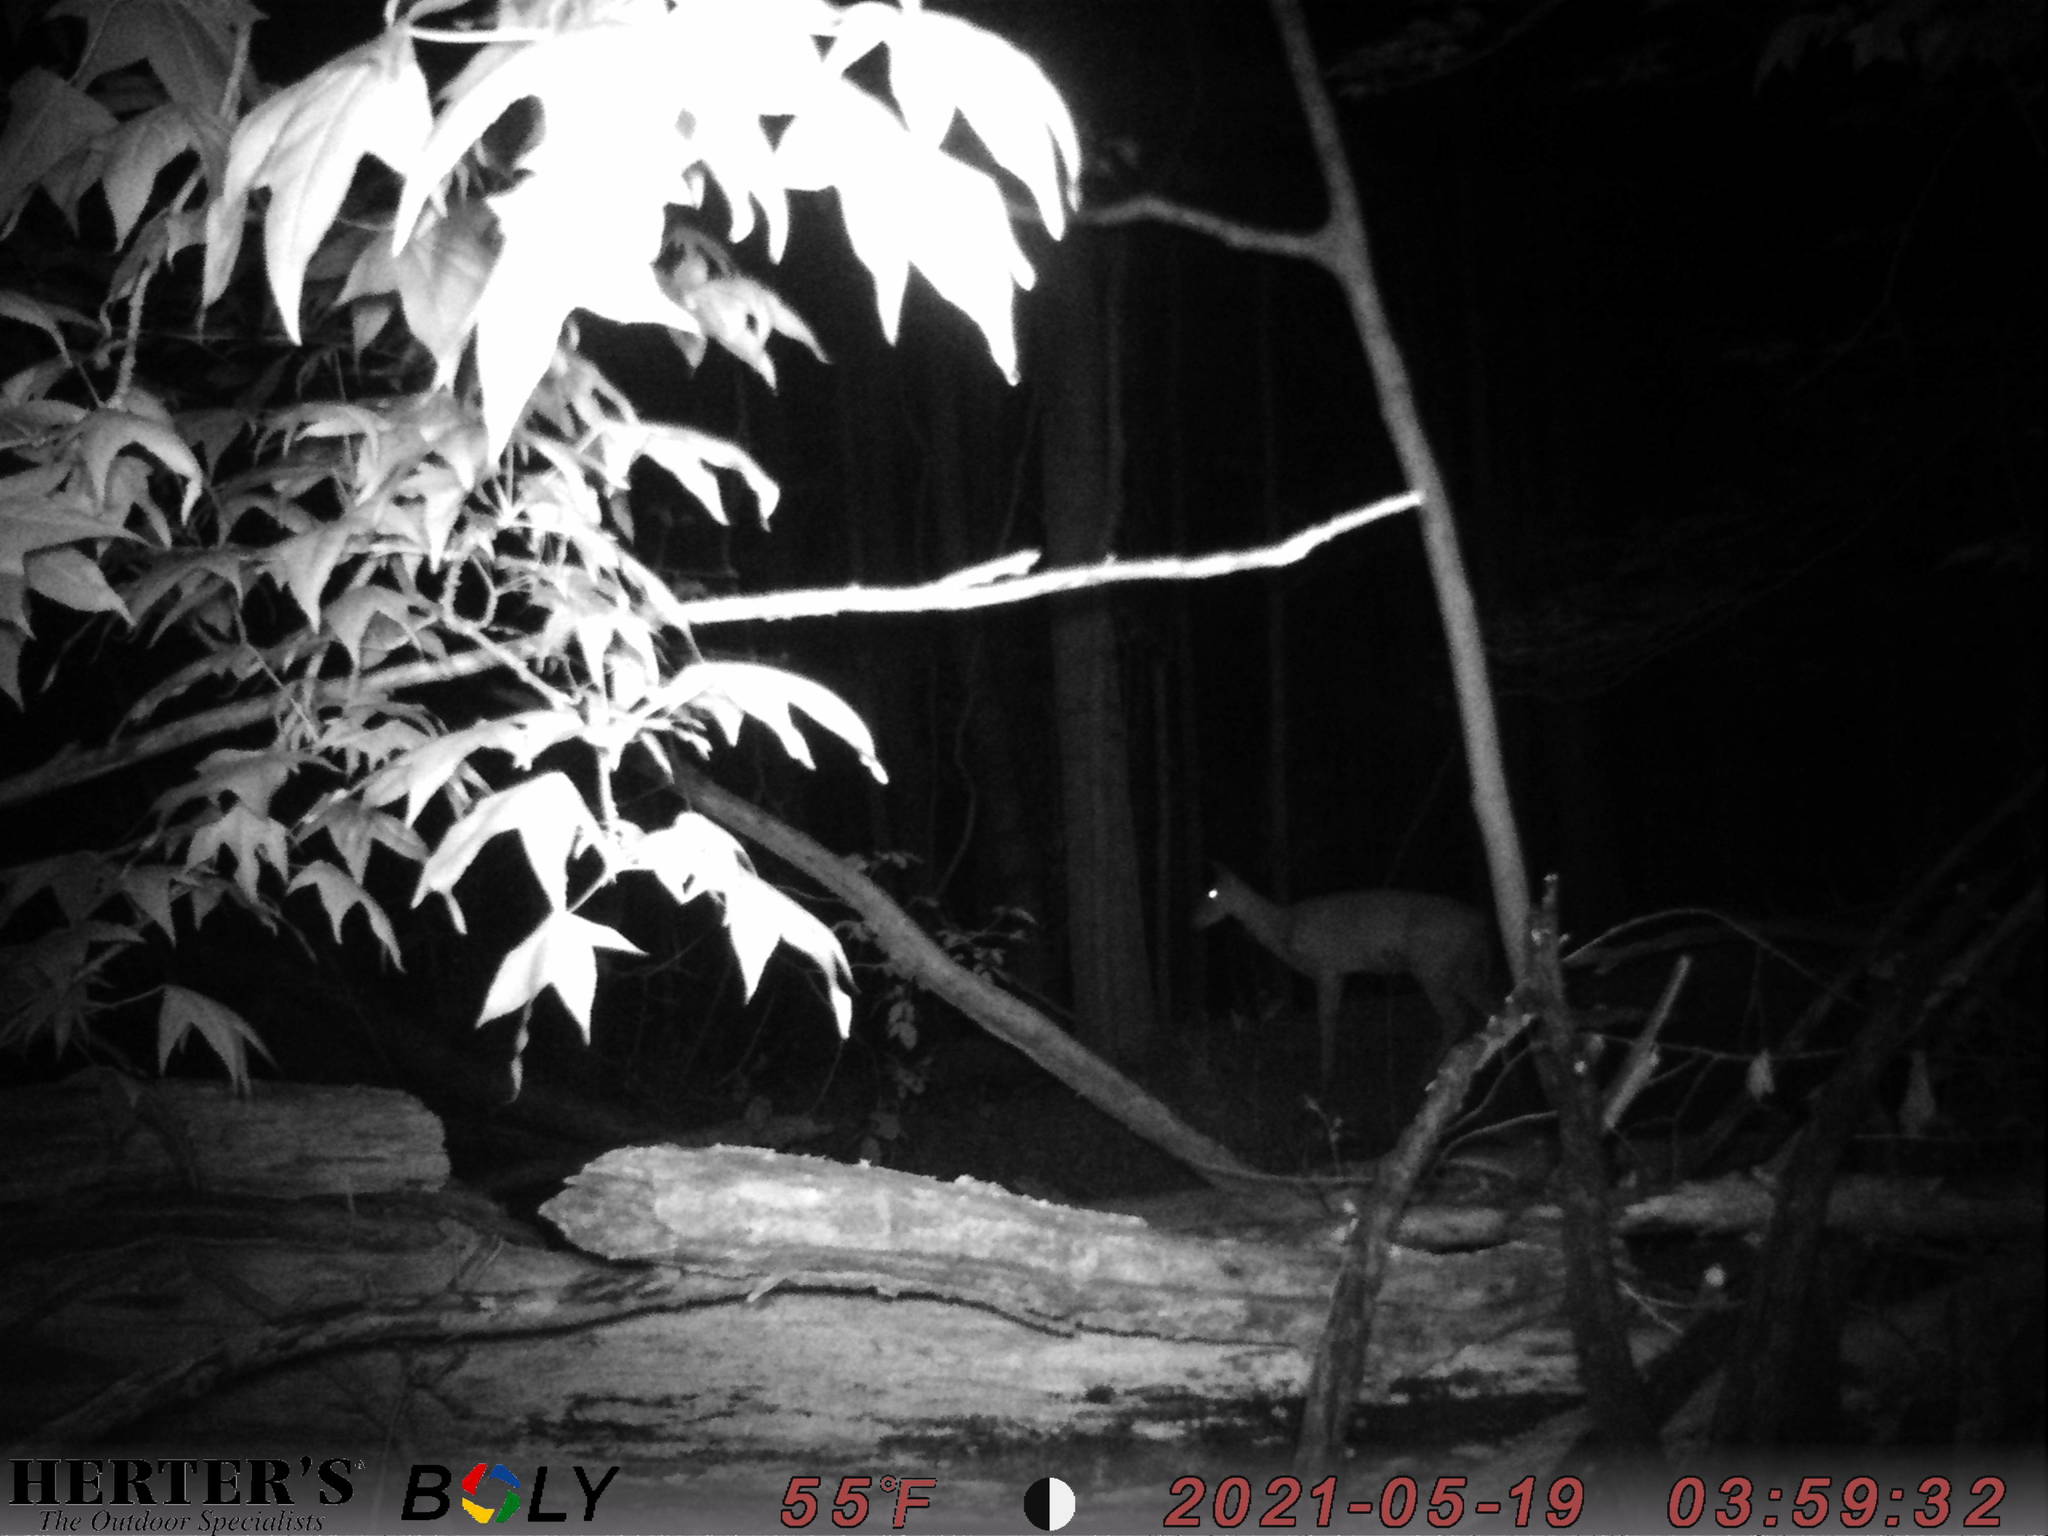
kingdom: Animalia
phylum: Chordata
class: Mammalia
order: Artiodactyla
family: Cervidae
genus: Odocoileus
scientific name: Odocoileus virginianus
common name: White-tailed deer
